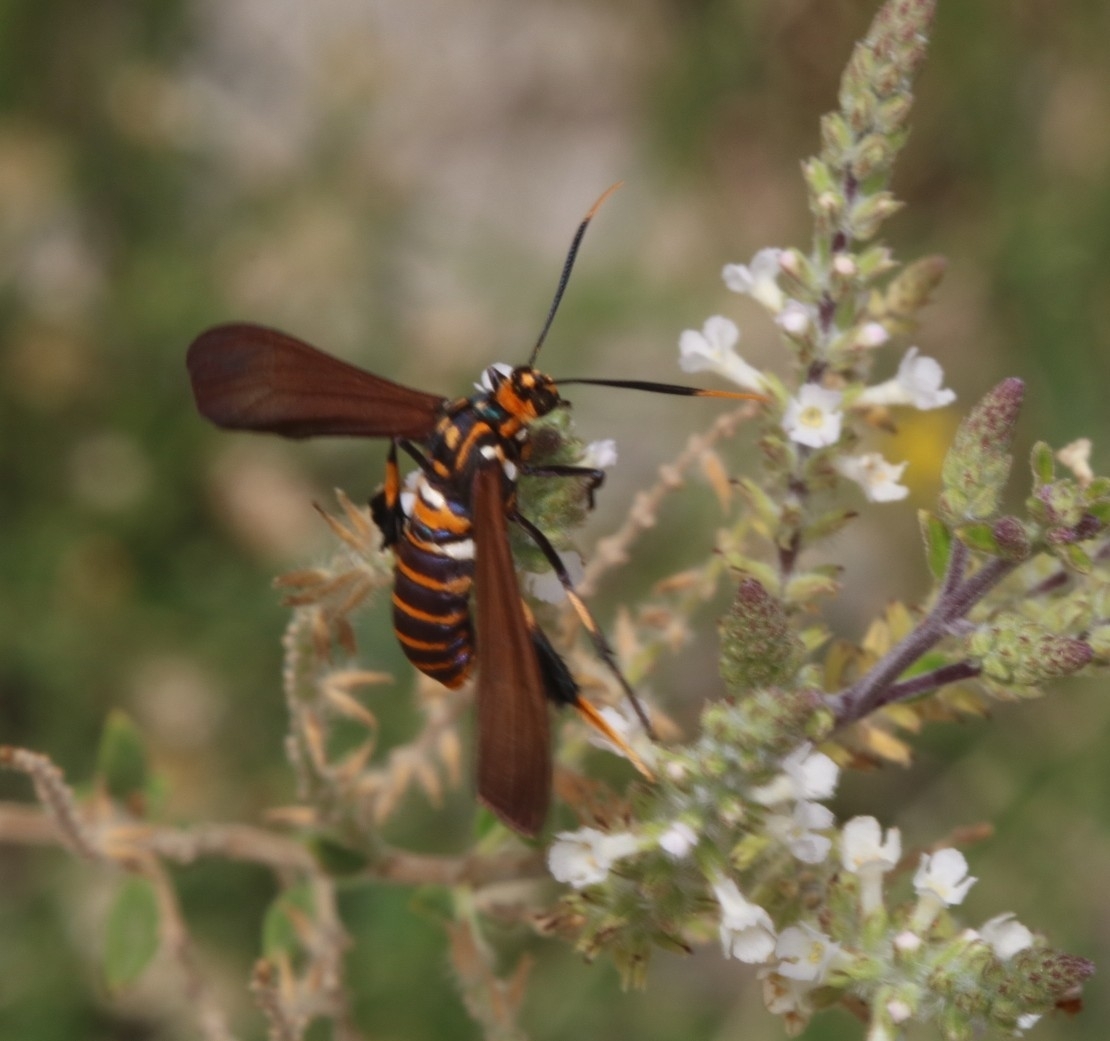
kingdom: Animalia
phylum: Arthropoda
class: Insecta
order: Lepidoptera
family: Erebidae
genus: Horama
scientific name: Horama panthalon
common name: Texas wasp moth
